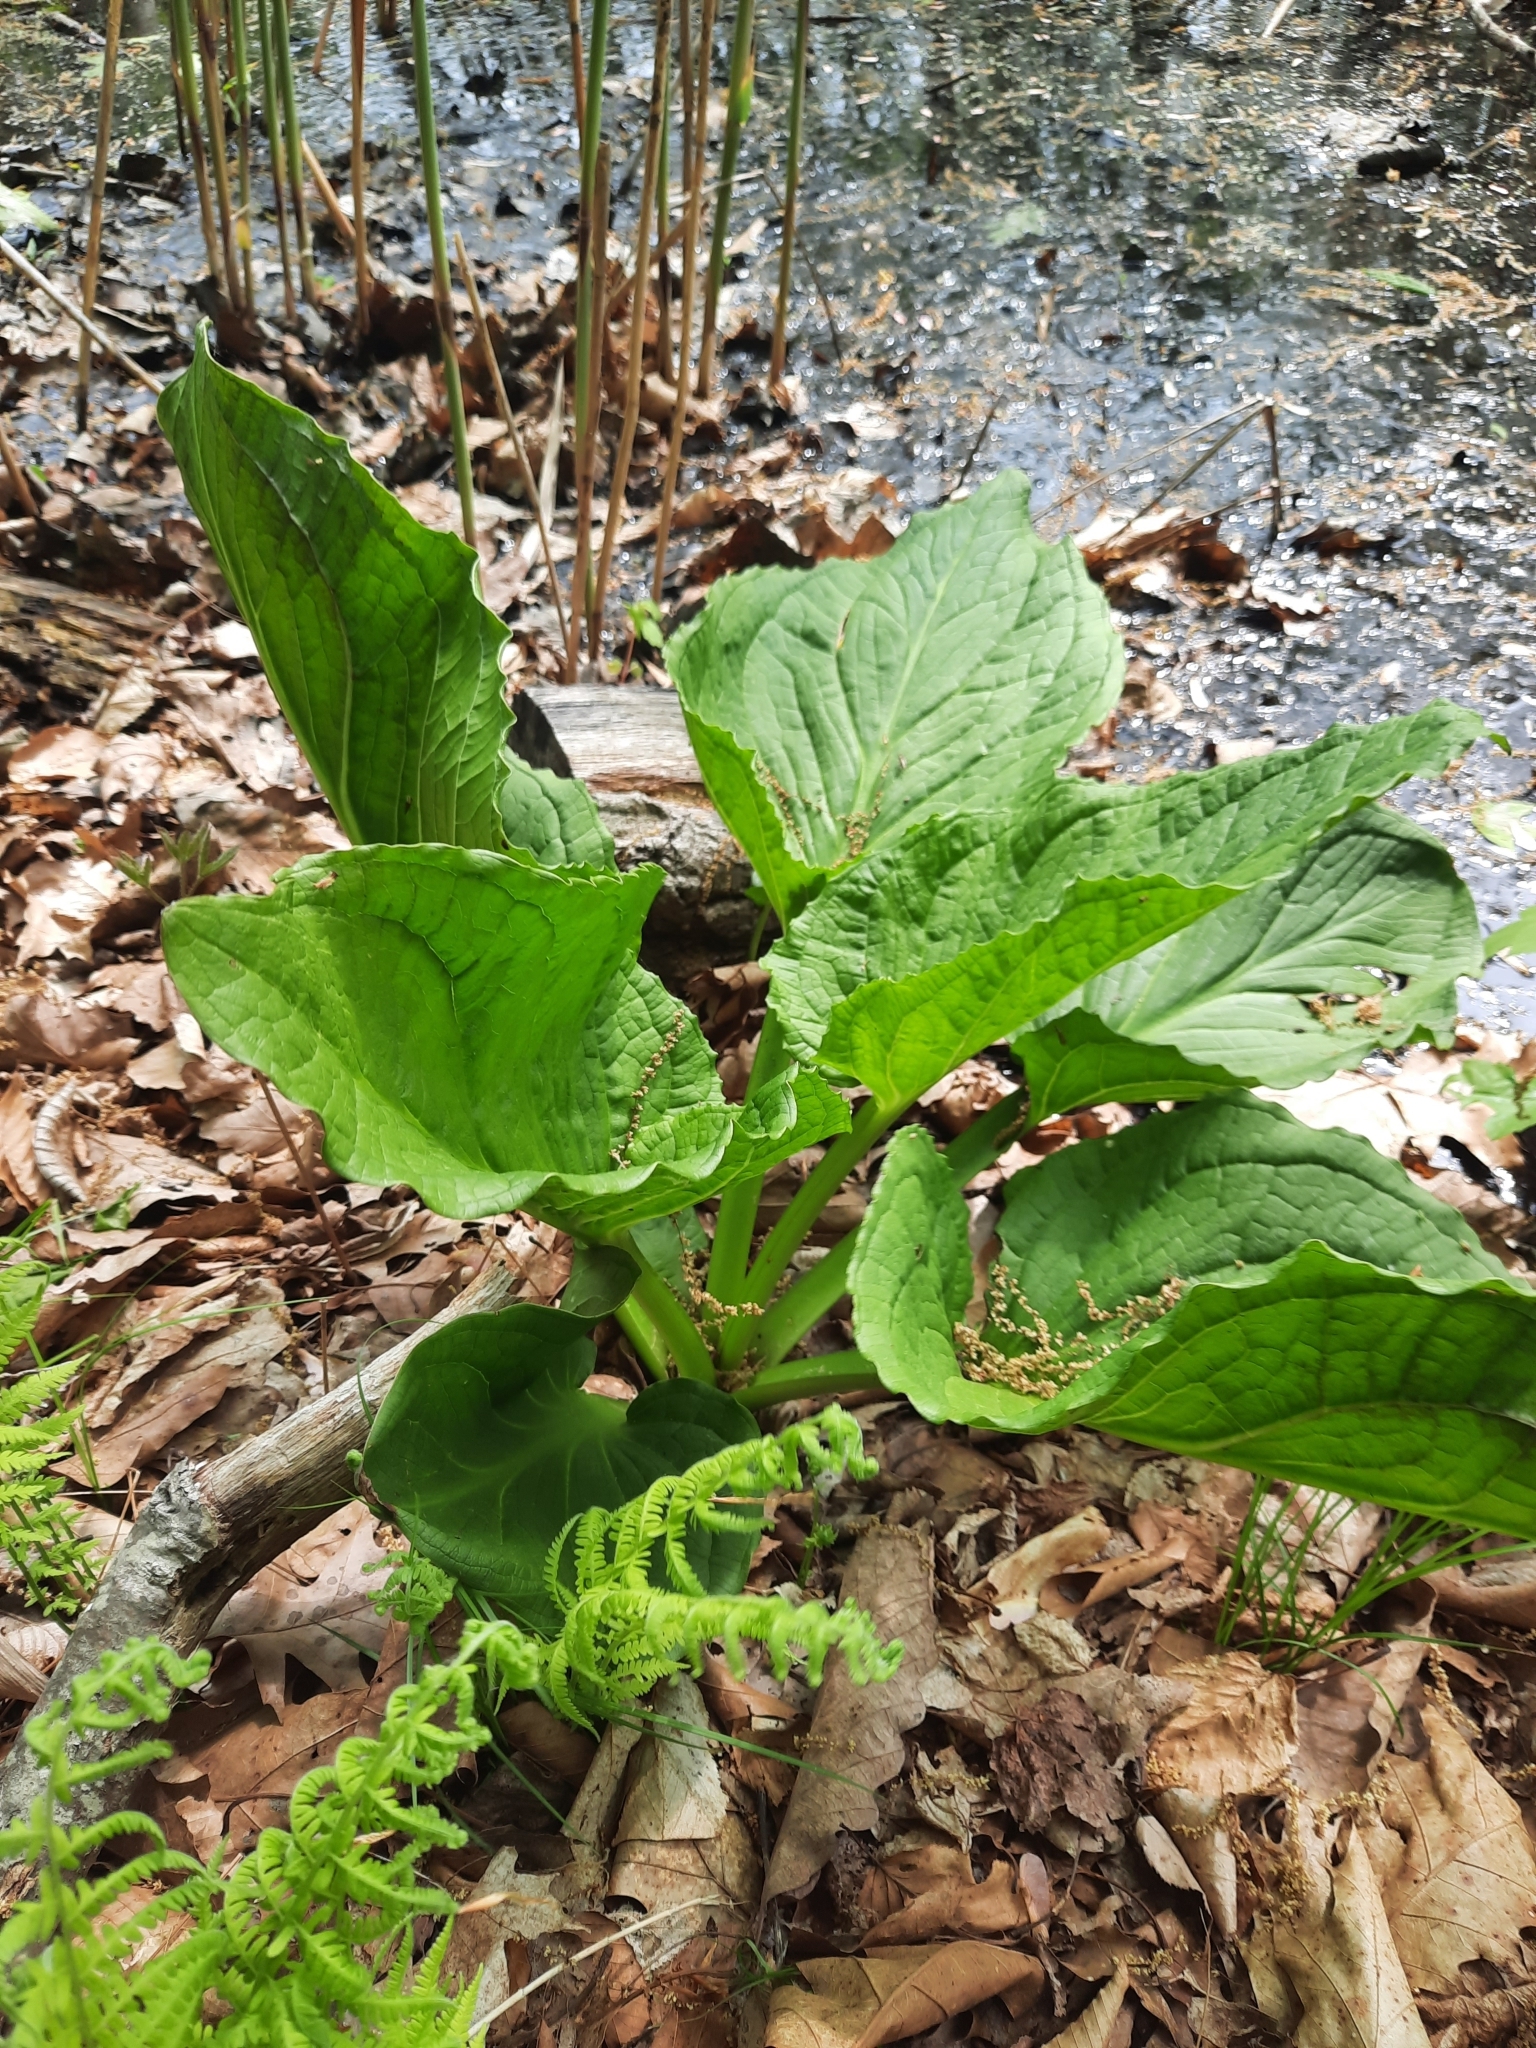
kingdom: Plantae
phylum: Tracheophyta
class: Liliopsida
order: Alismatales
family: Araceae
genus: Symplocarpus
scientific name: Symplocarpus foetidus
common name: Eastern skunk cabbage
